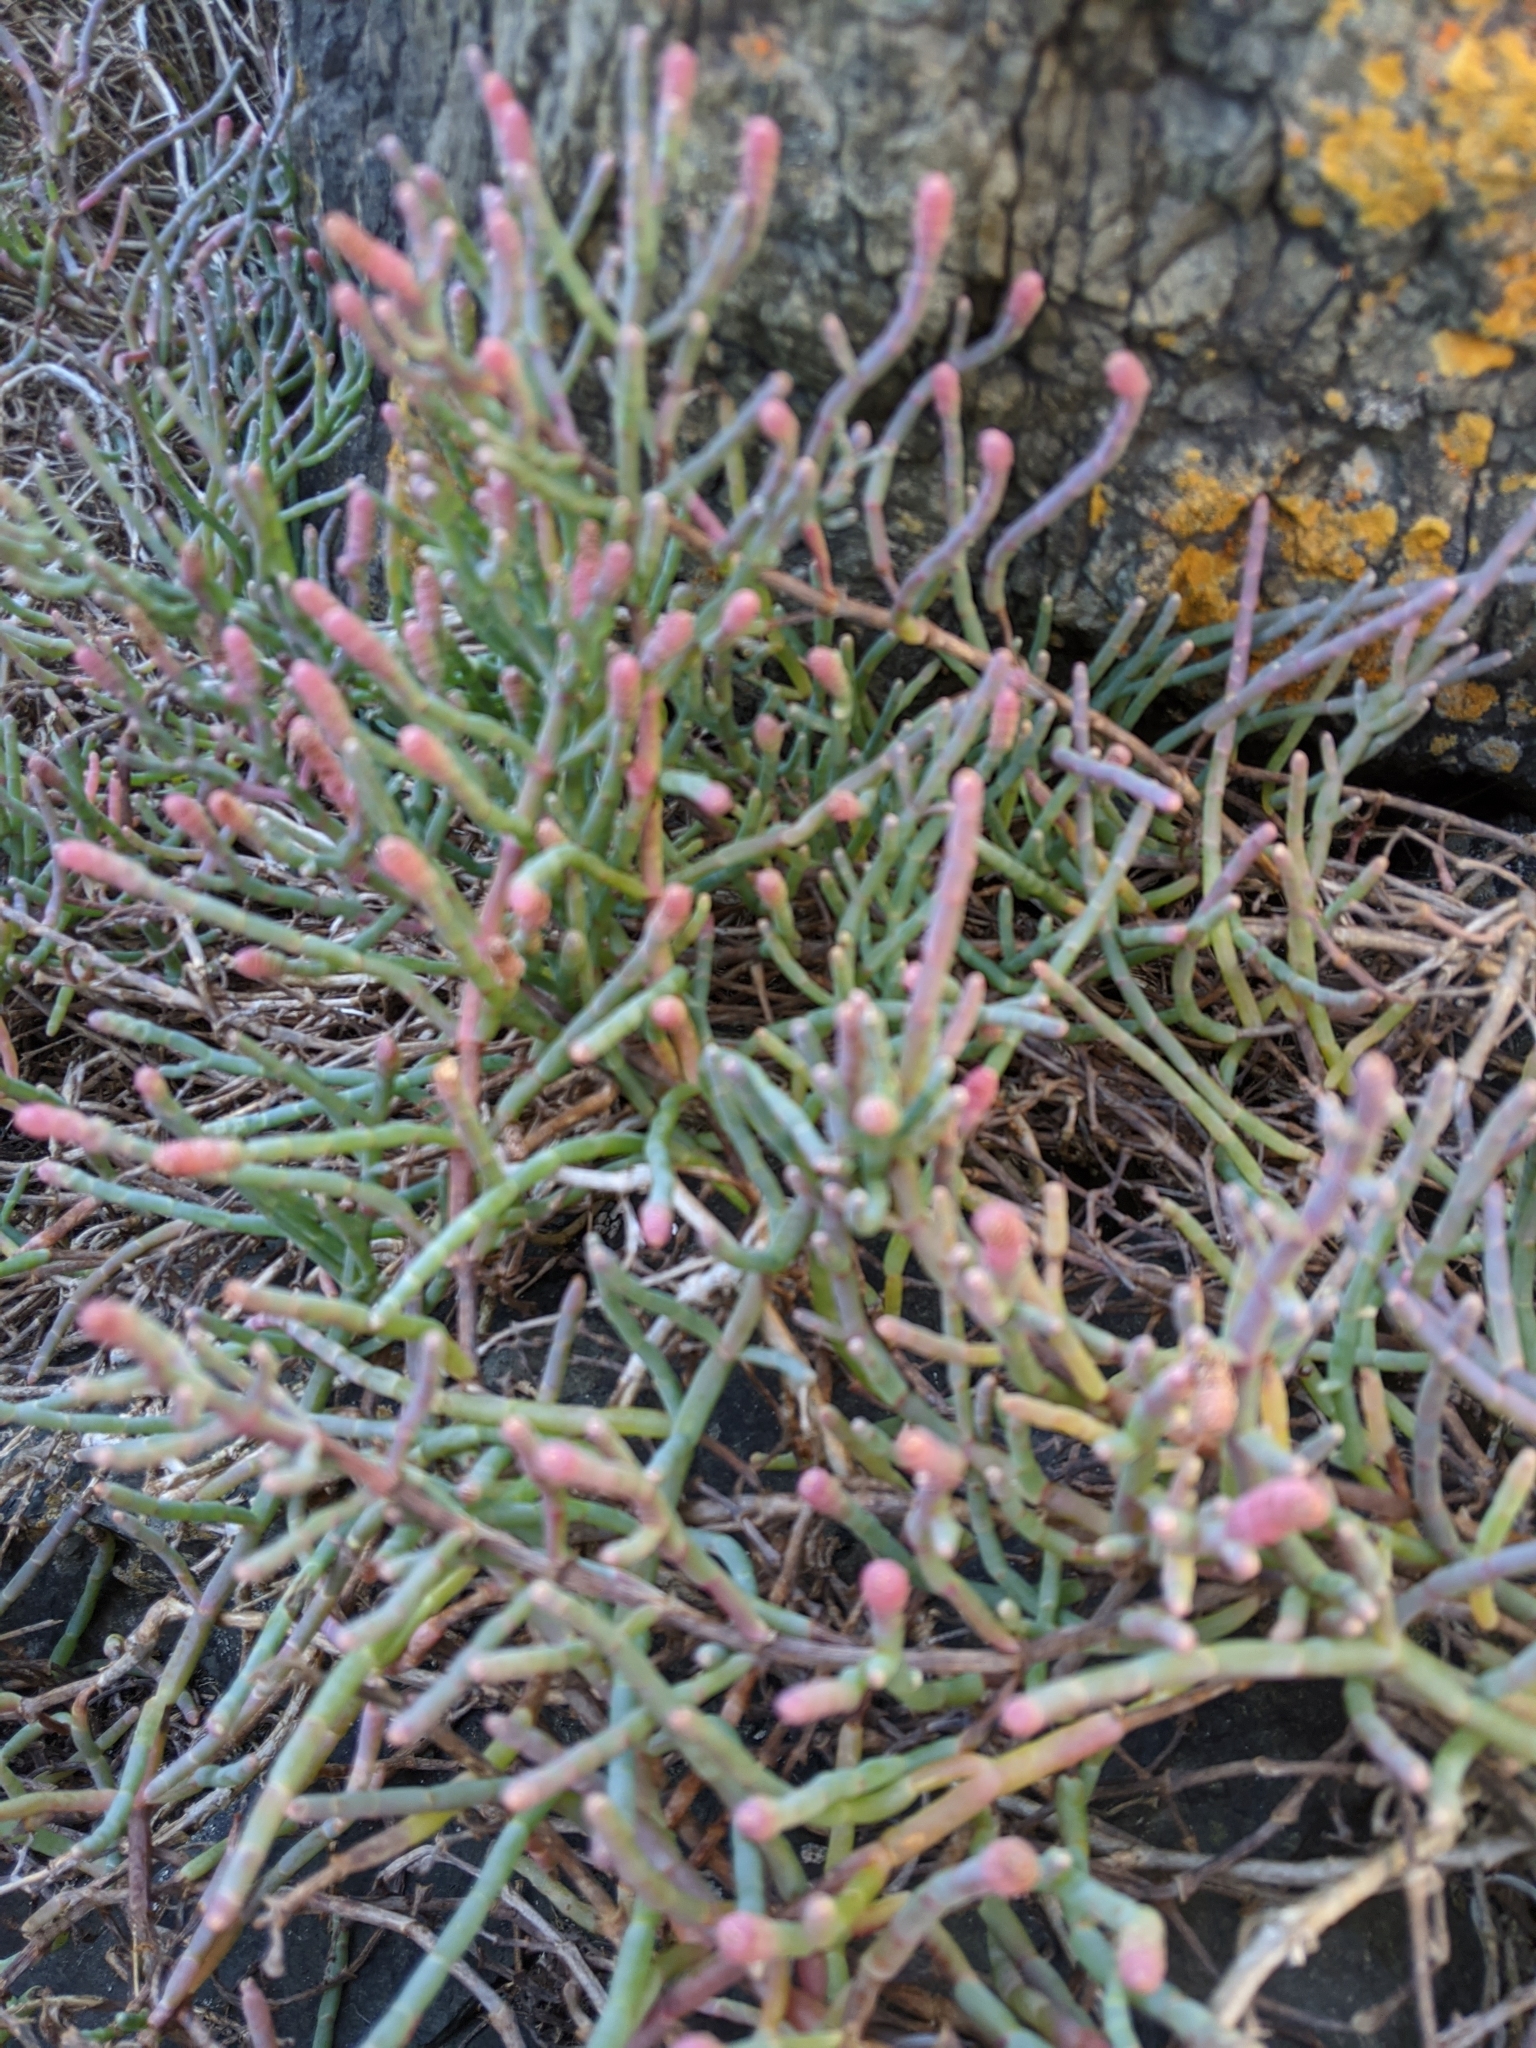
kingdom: Plantae
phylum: Tracheophyta
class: Magnoliopsida
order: Caryophyllales
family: Amaranthaceae
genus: Salicornia
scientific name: Salicornia pacifica
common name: Pacific glasswort
